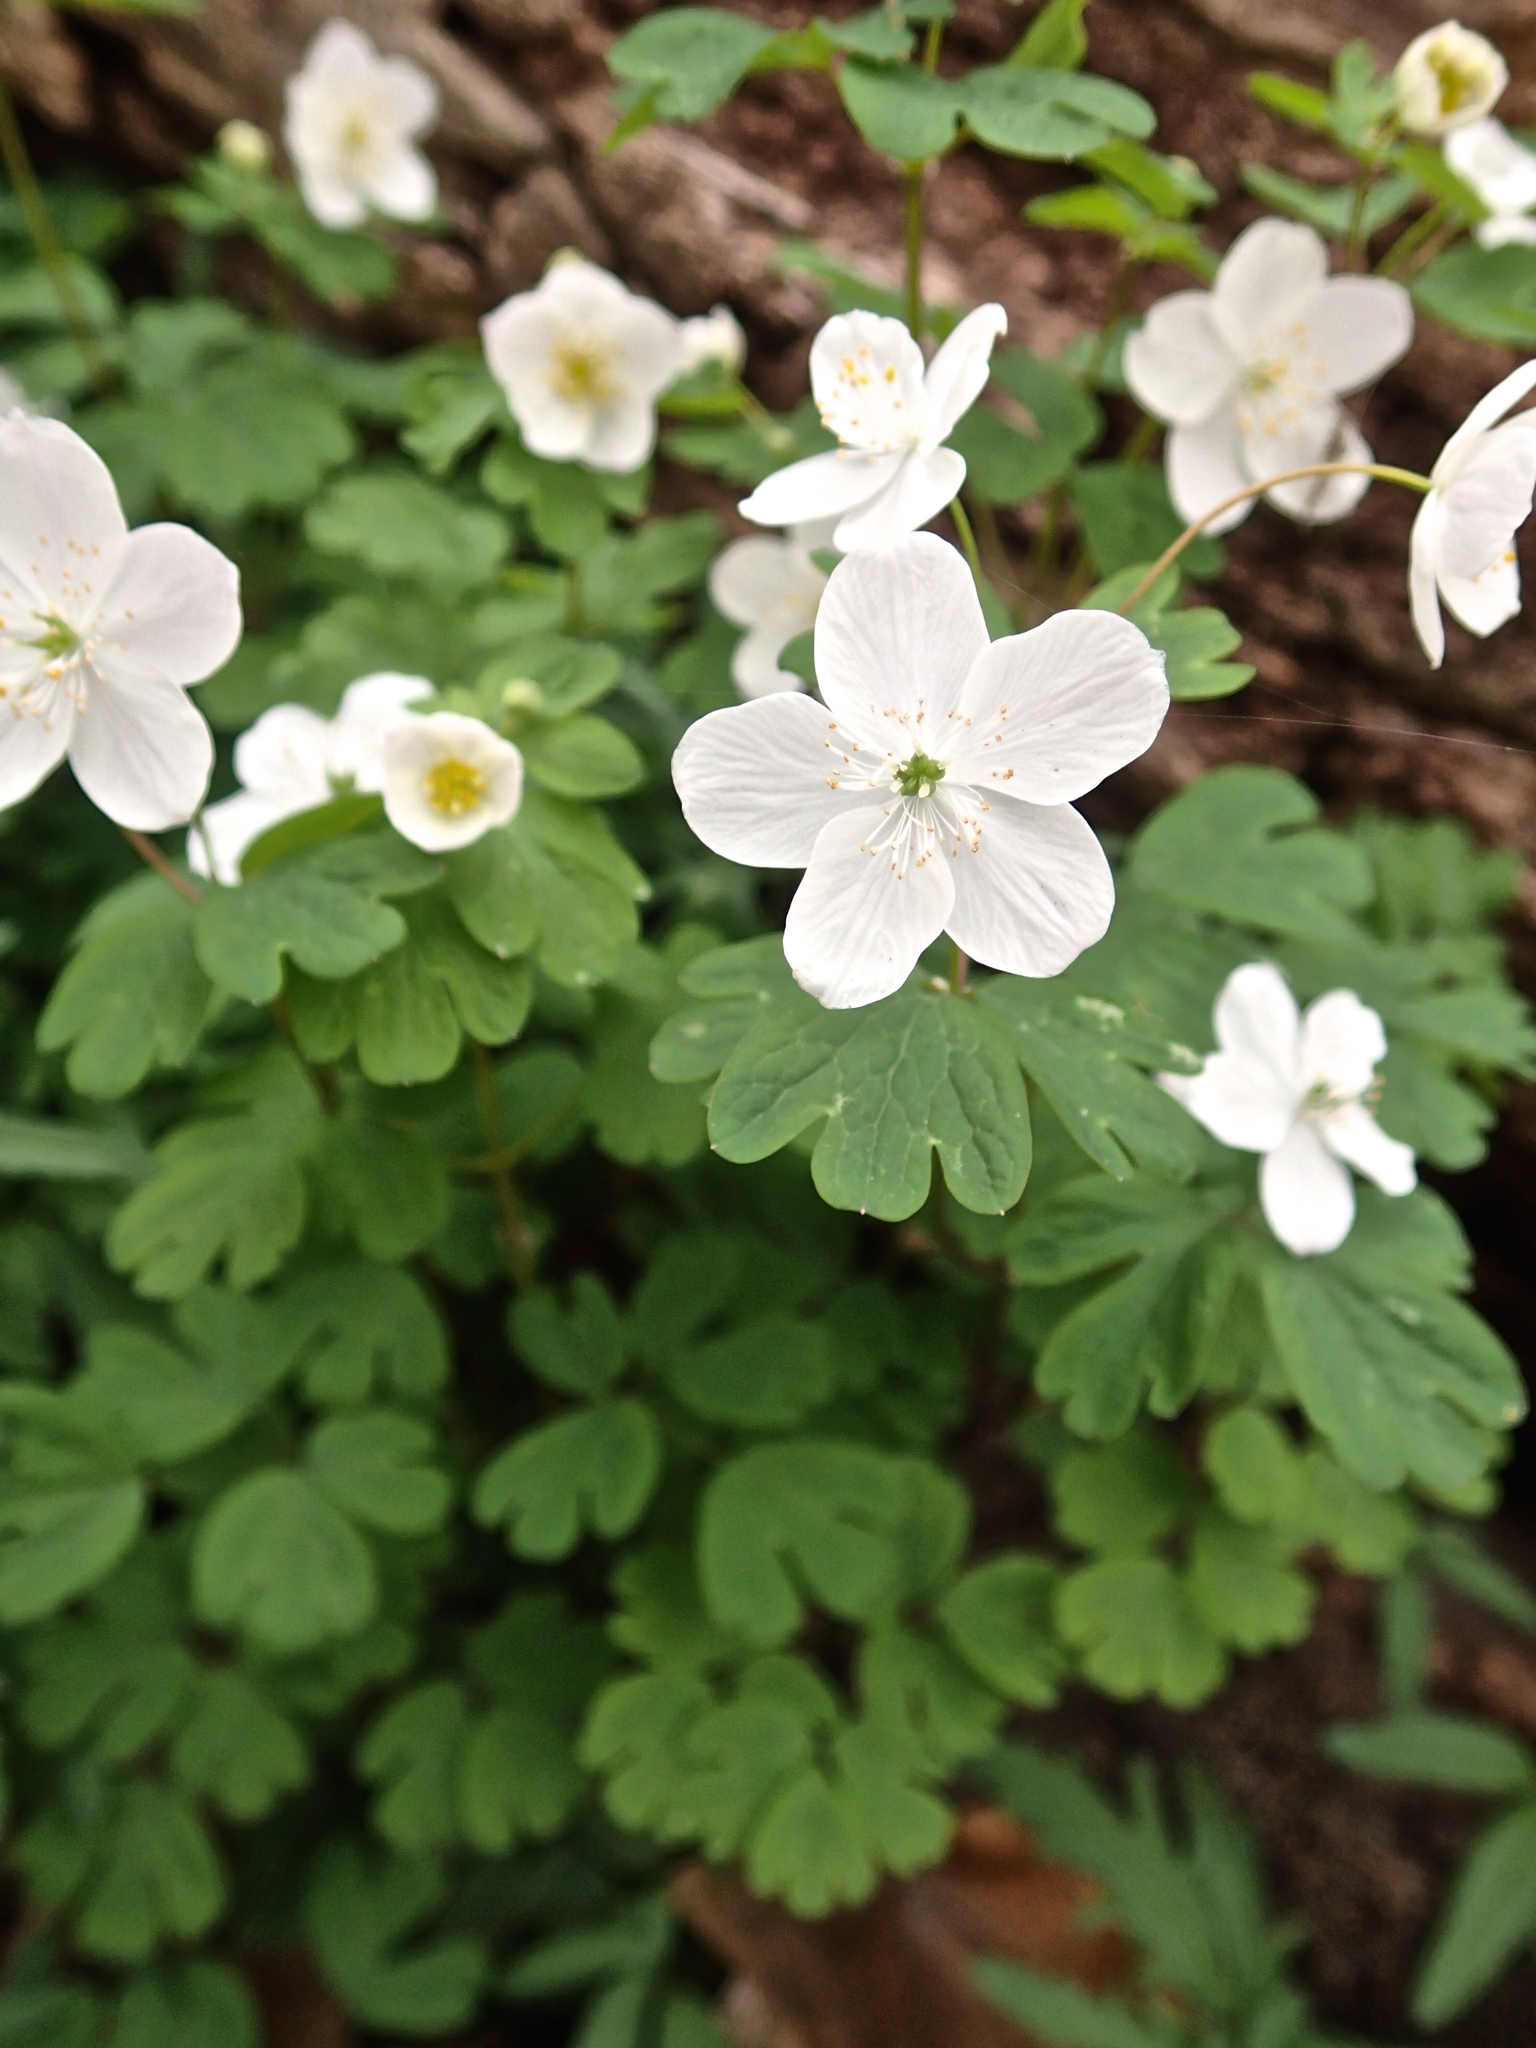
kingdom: Plantae
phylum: Tracheophyta
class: Magnoliopsida
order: Ranunculales
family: Ranunculaceae
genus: Enemion
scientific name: Enemion biternatum
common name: Eastern false rue-anemone
